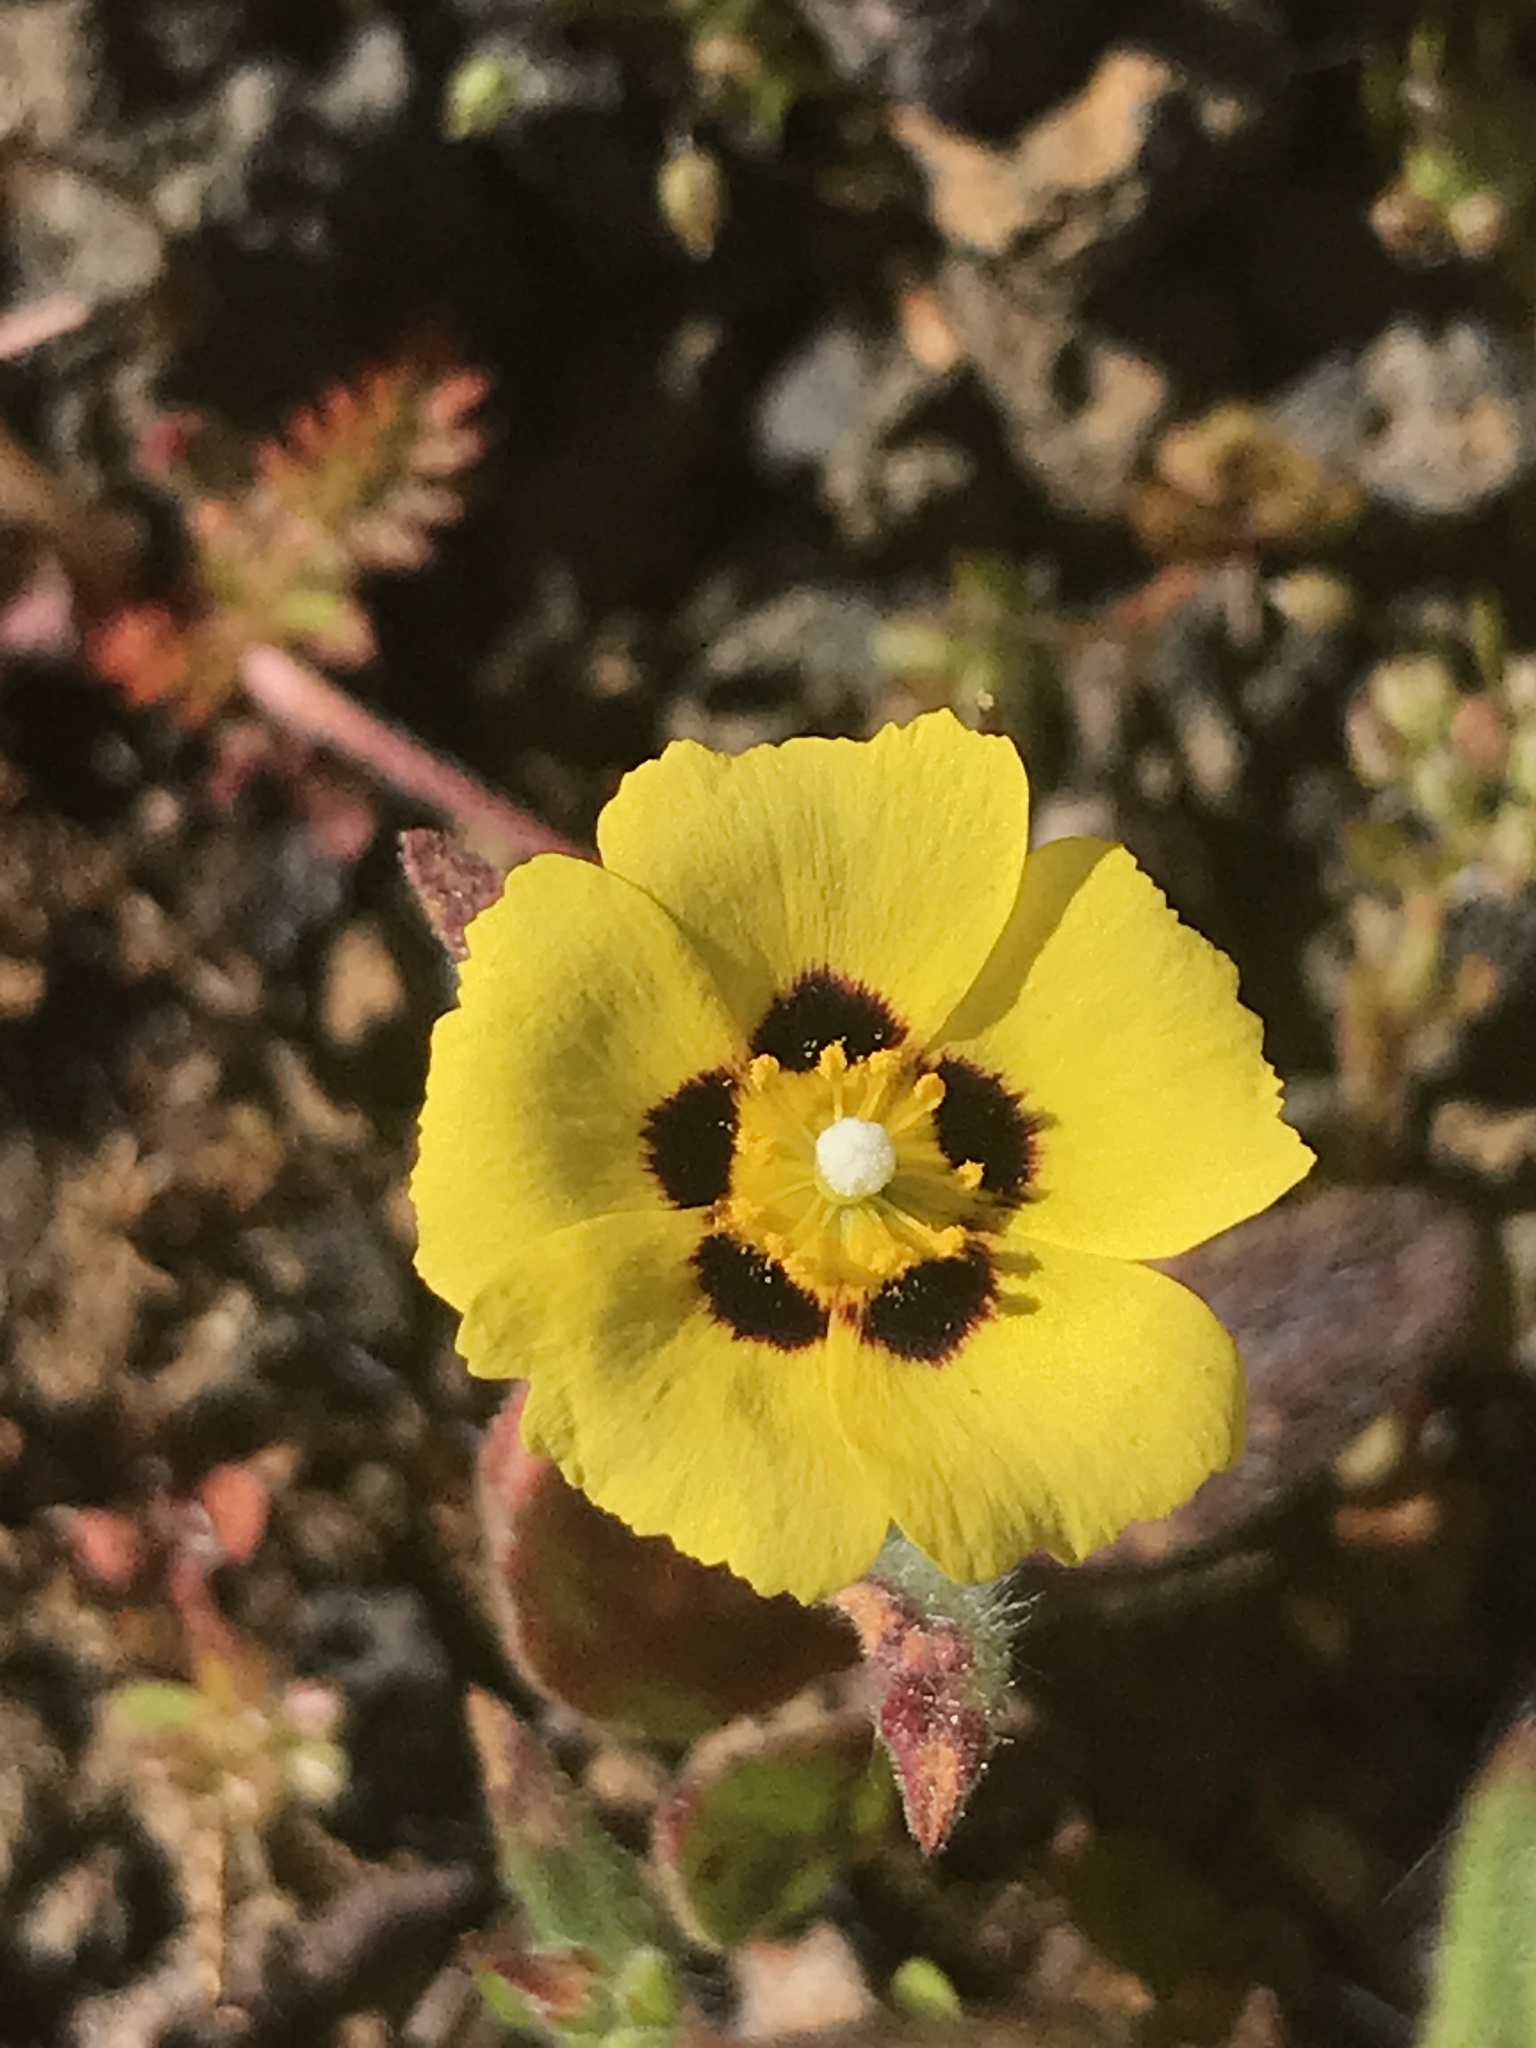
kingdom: Plantae
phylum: Tracheophyta
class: Magnoliopsida
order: Malvales
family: Cistaceae
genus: Tuberaria
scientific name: Tuberaria guttata
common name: Spotted rock-rose
